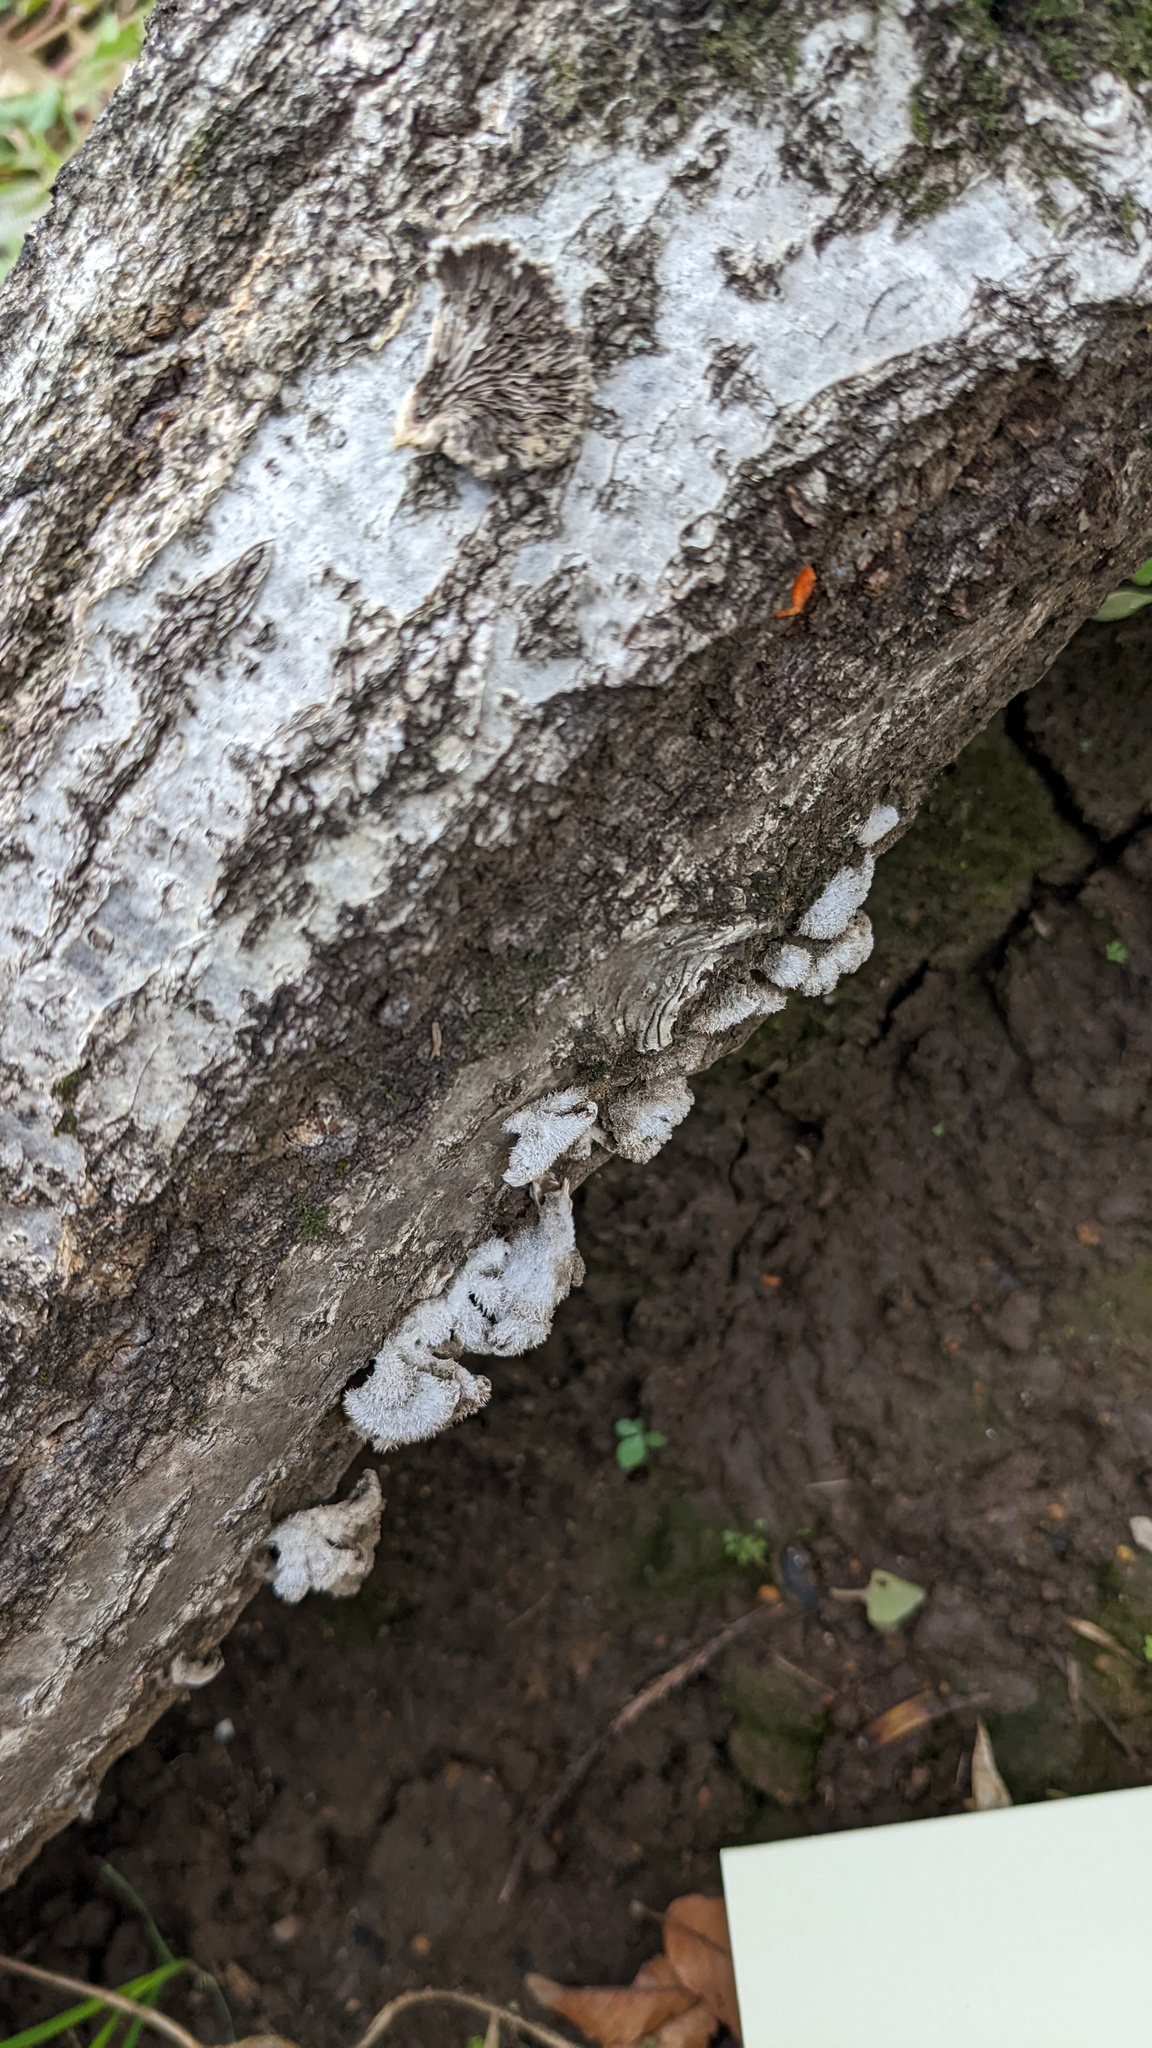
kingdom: Fungi
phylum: Basidiomycota
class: Agaricomycetes
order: Agaricales
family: Schizophyllaceae
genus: Schizophyllum
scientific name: Schizophyllum commune
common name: Common porecrust
